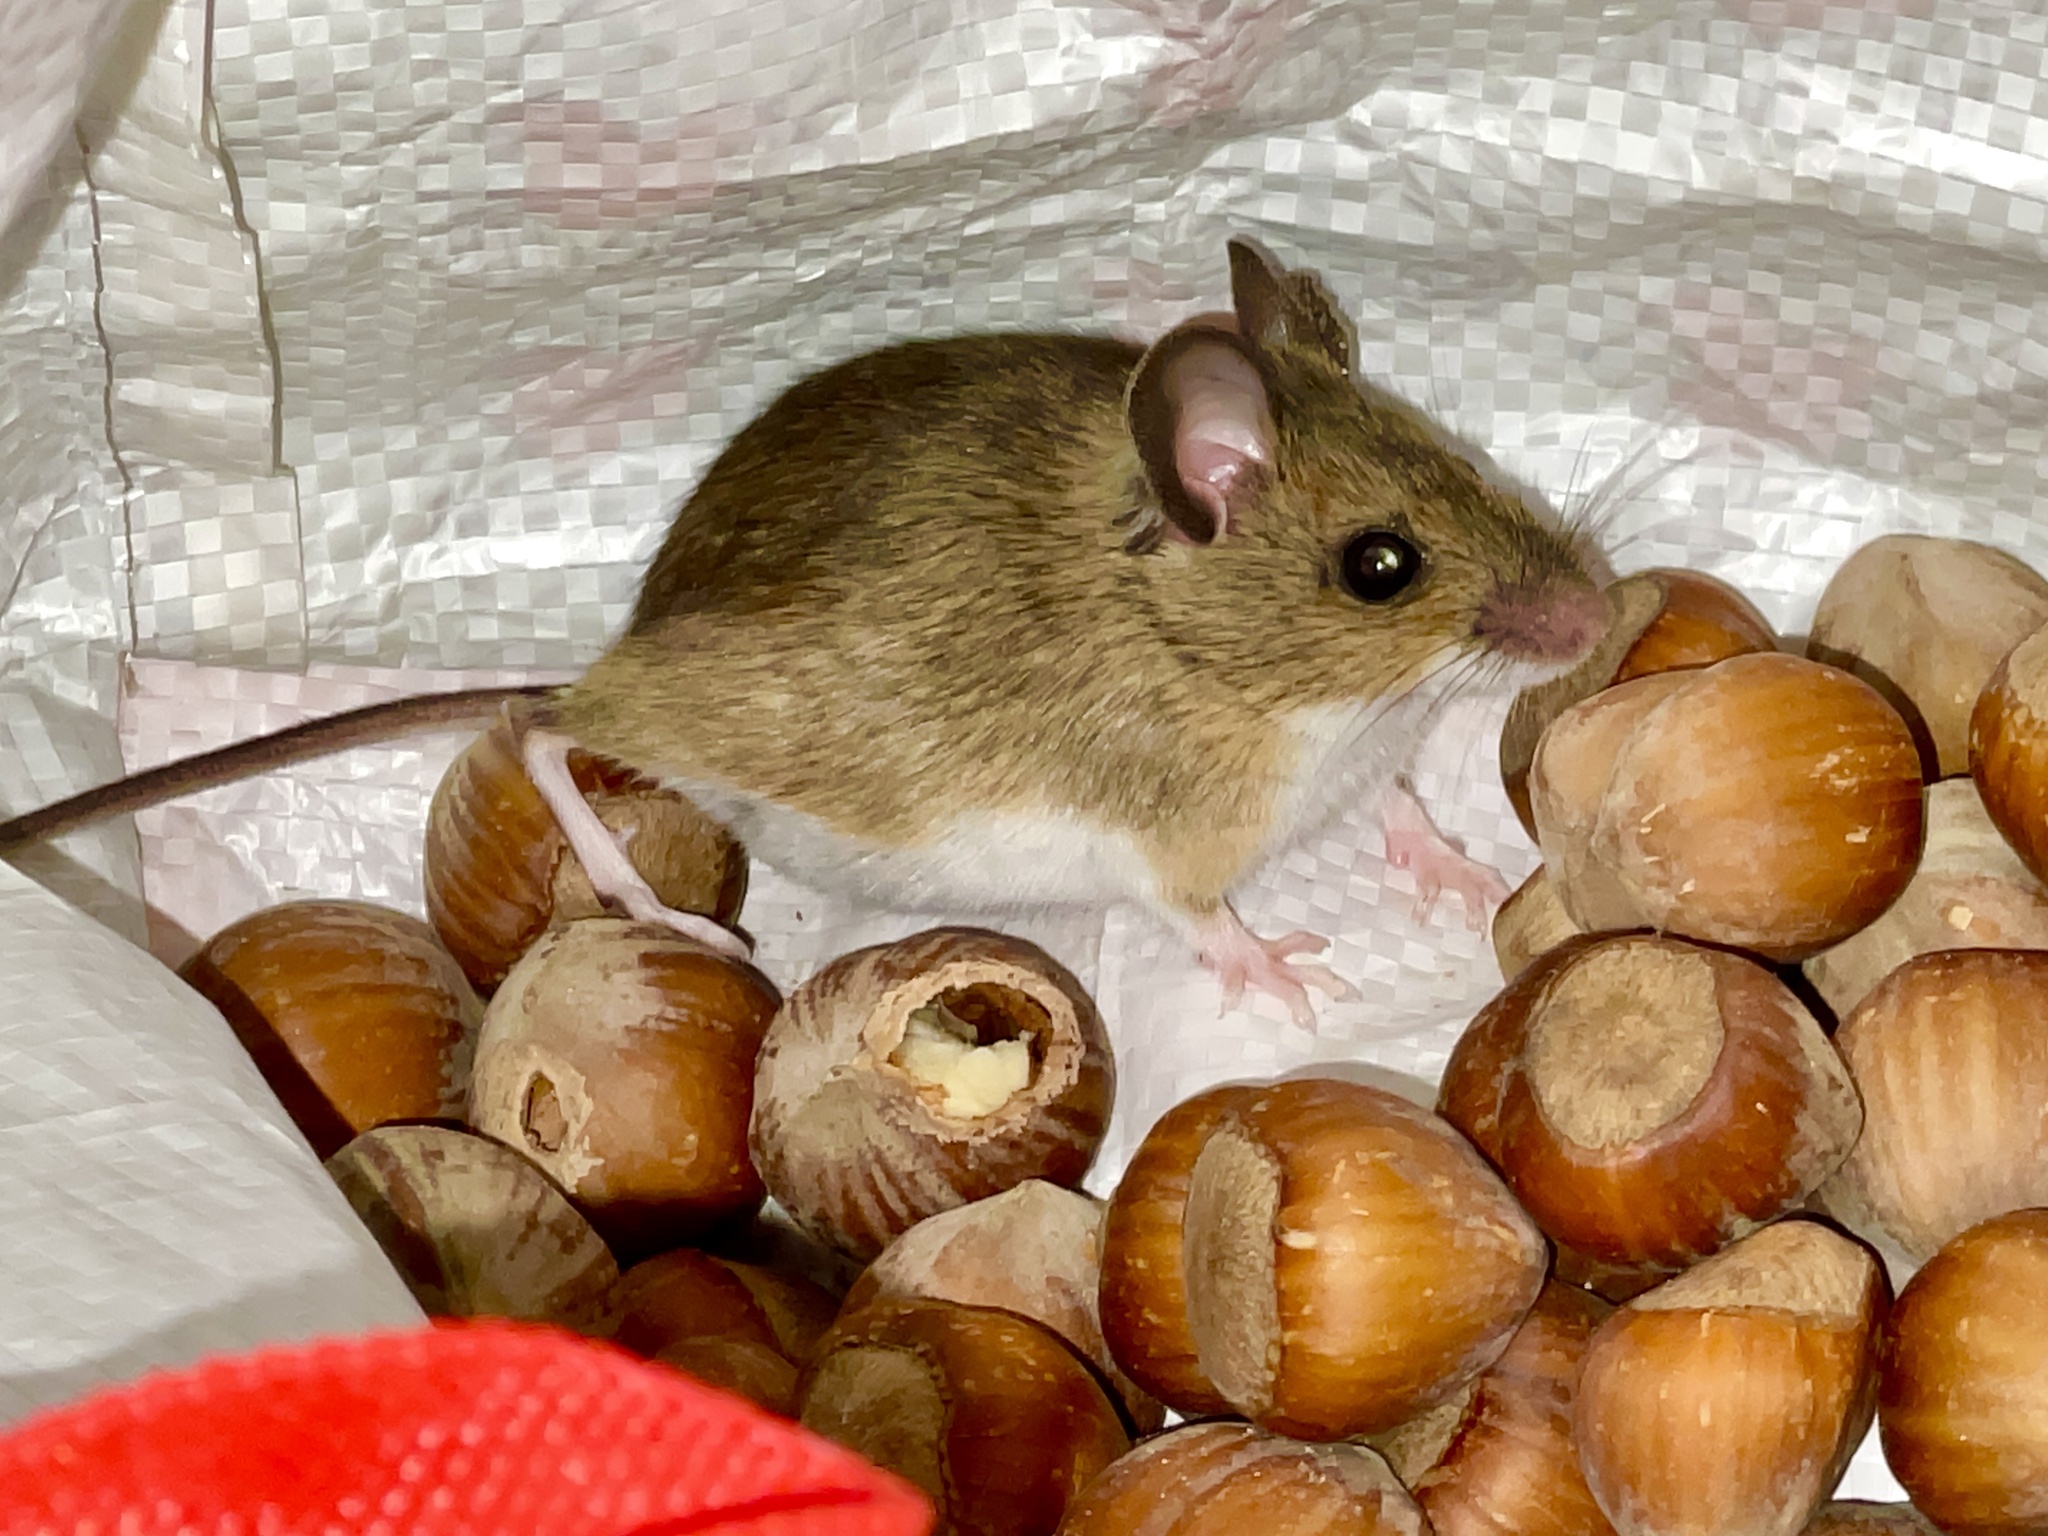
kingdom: Animalia
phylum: Chordata
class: Mammalia
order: Rodentia
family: Muridae
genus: Apodemus
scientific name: Apodemus sylvaticus
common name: Wood mouse
